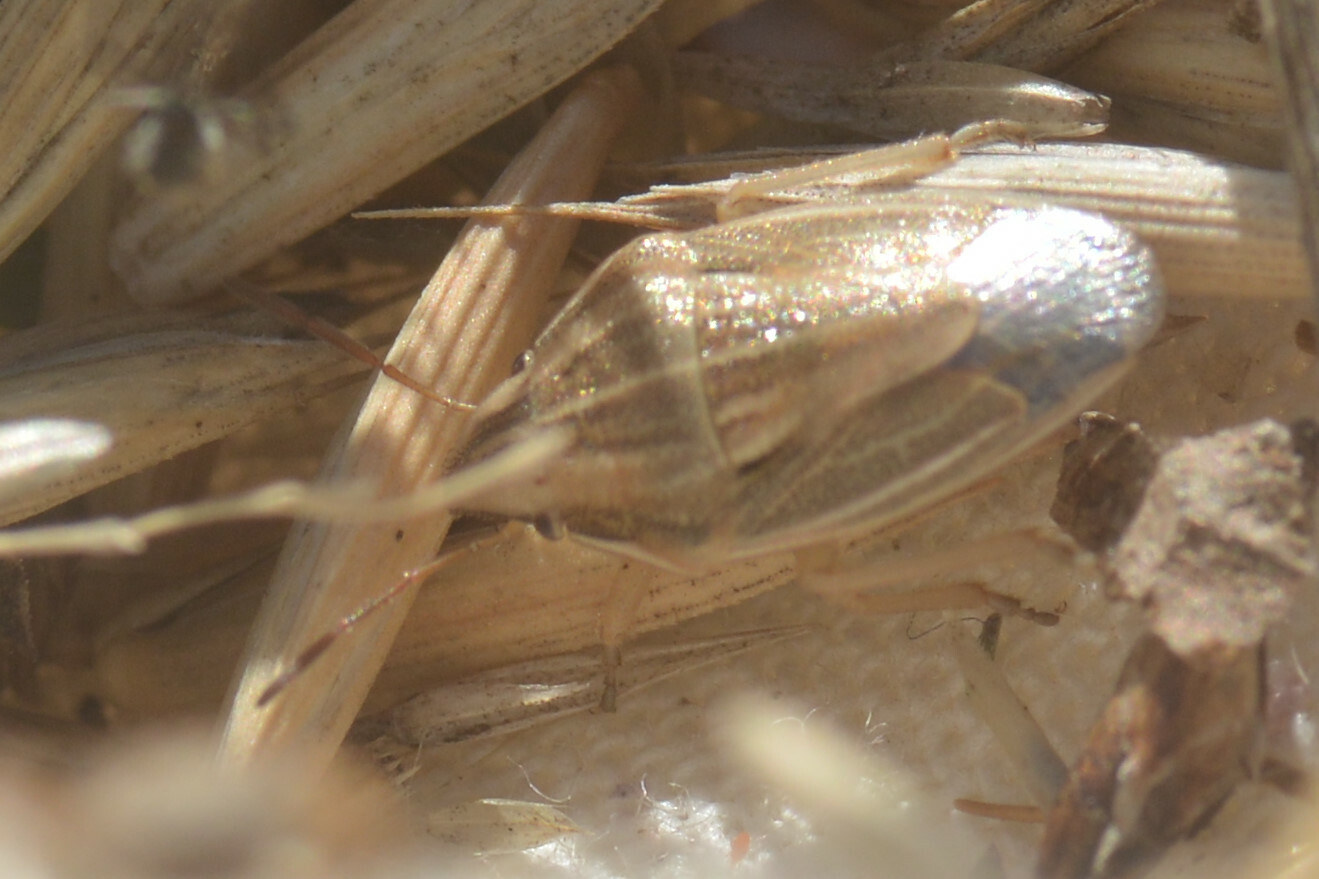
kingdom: Animalia
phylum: Arthropoda
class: Insecta
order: Hemiptera
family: Pentatomidae
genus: Aelia
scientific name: Aelia acuminata
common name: Bishop's mitre
